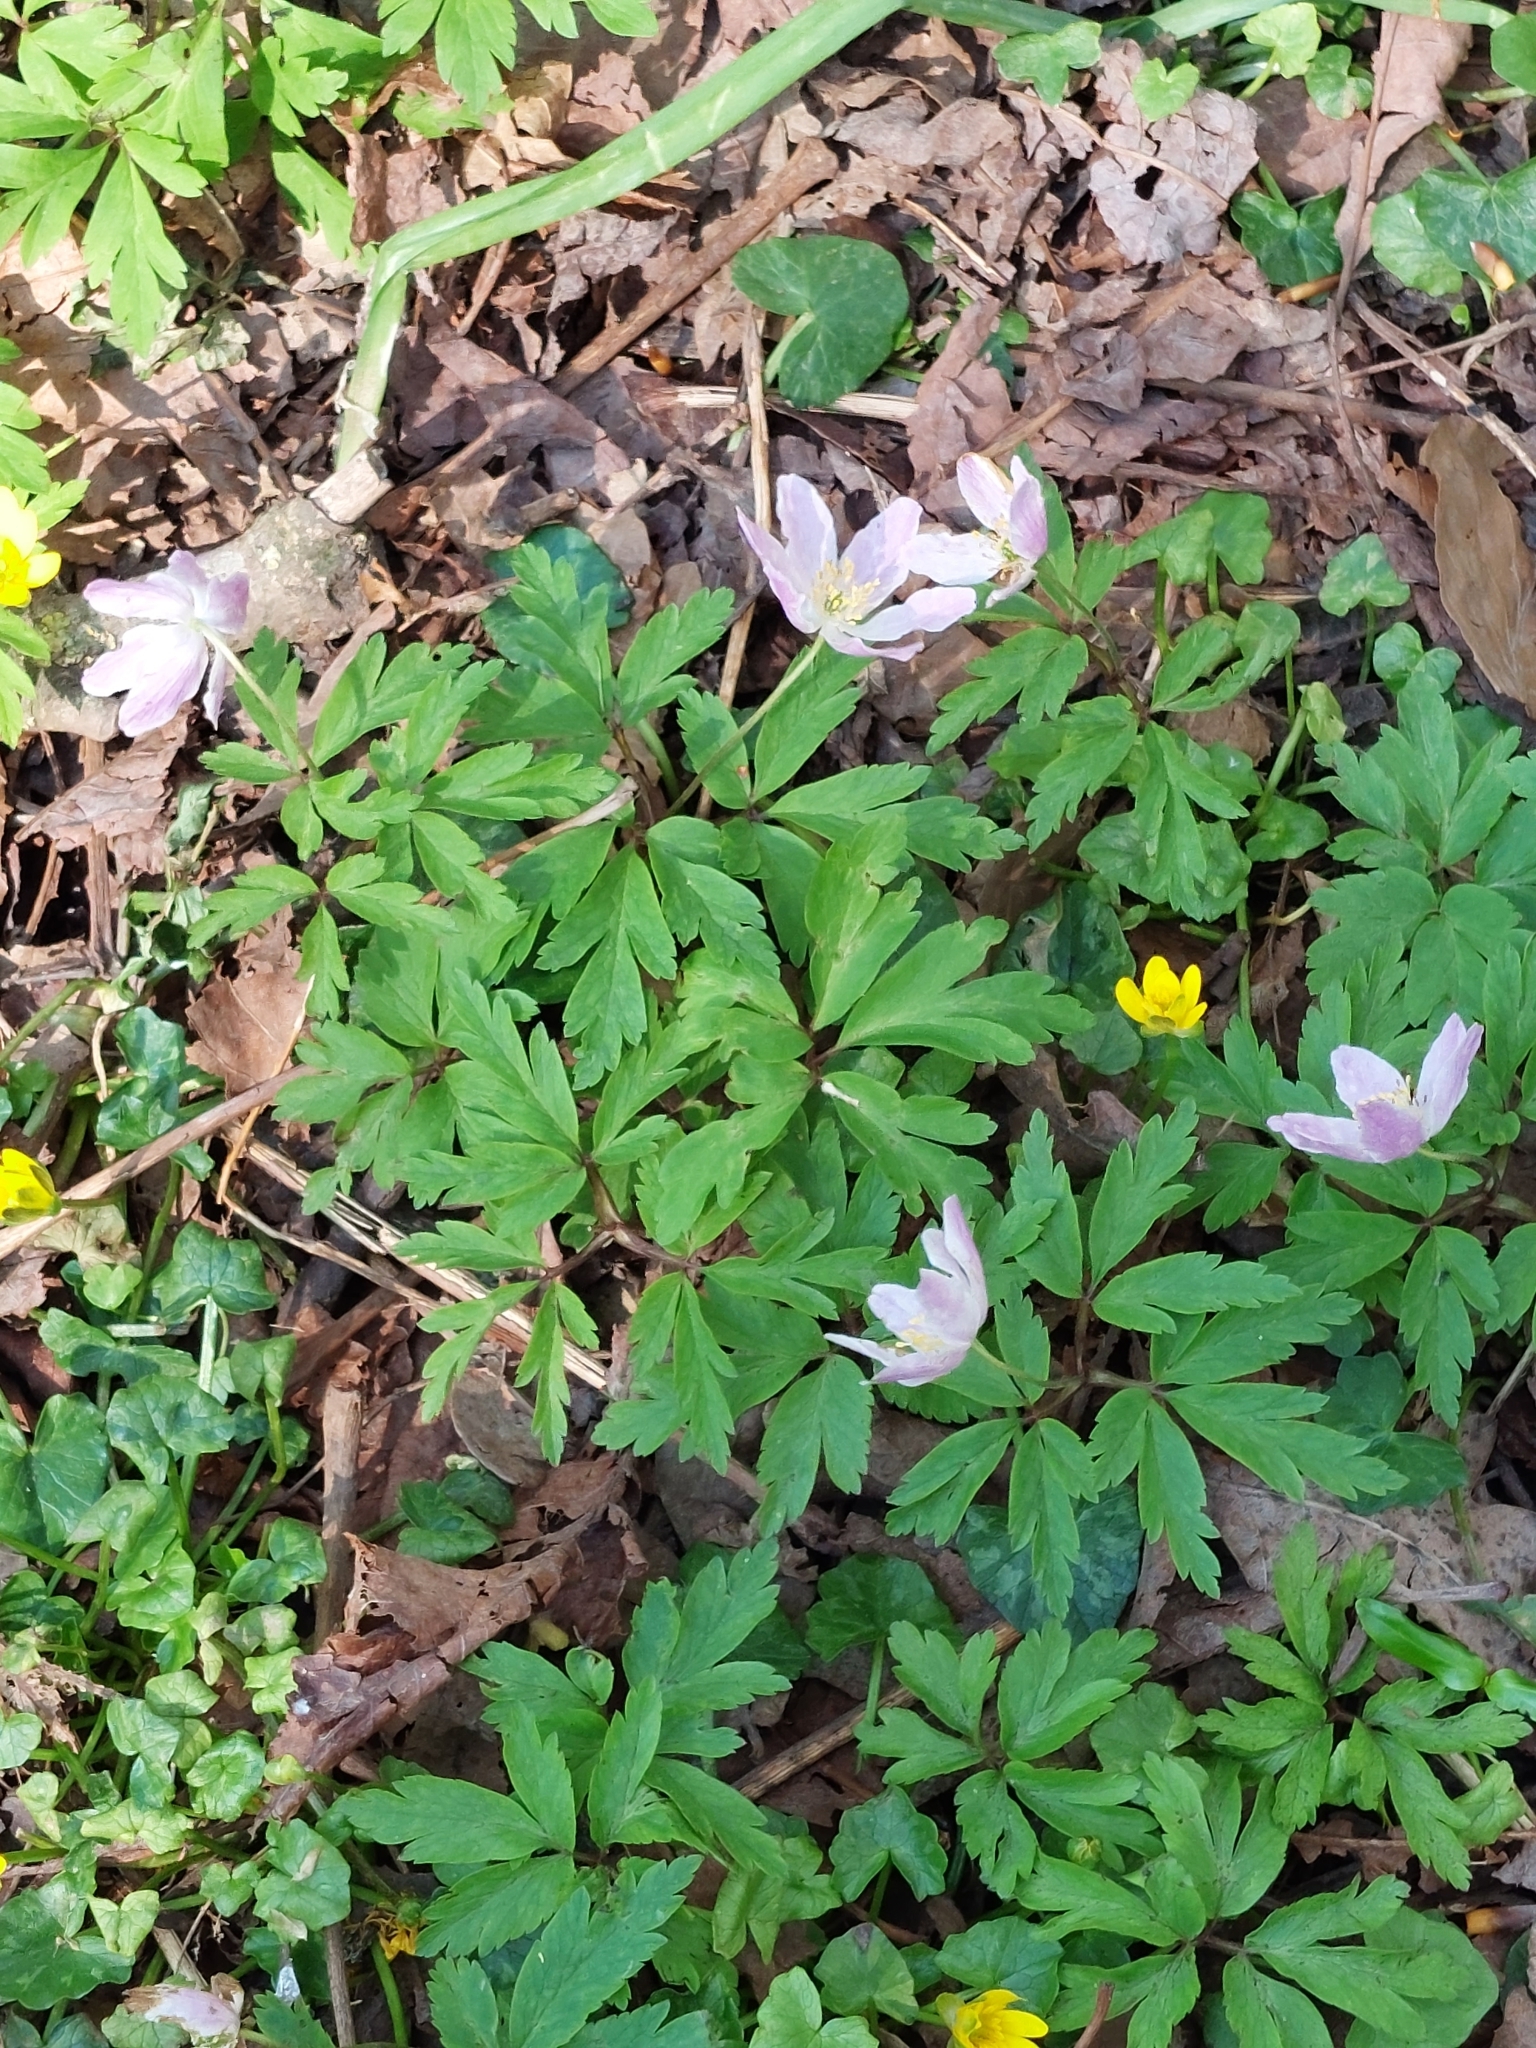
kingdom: Plantae
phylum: Tracheophyta
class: Magnoliopsida
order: Ranunculales
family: Ranunculaceae
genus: Anemone
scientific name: Anemone nemorosa
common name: Wood anemone
